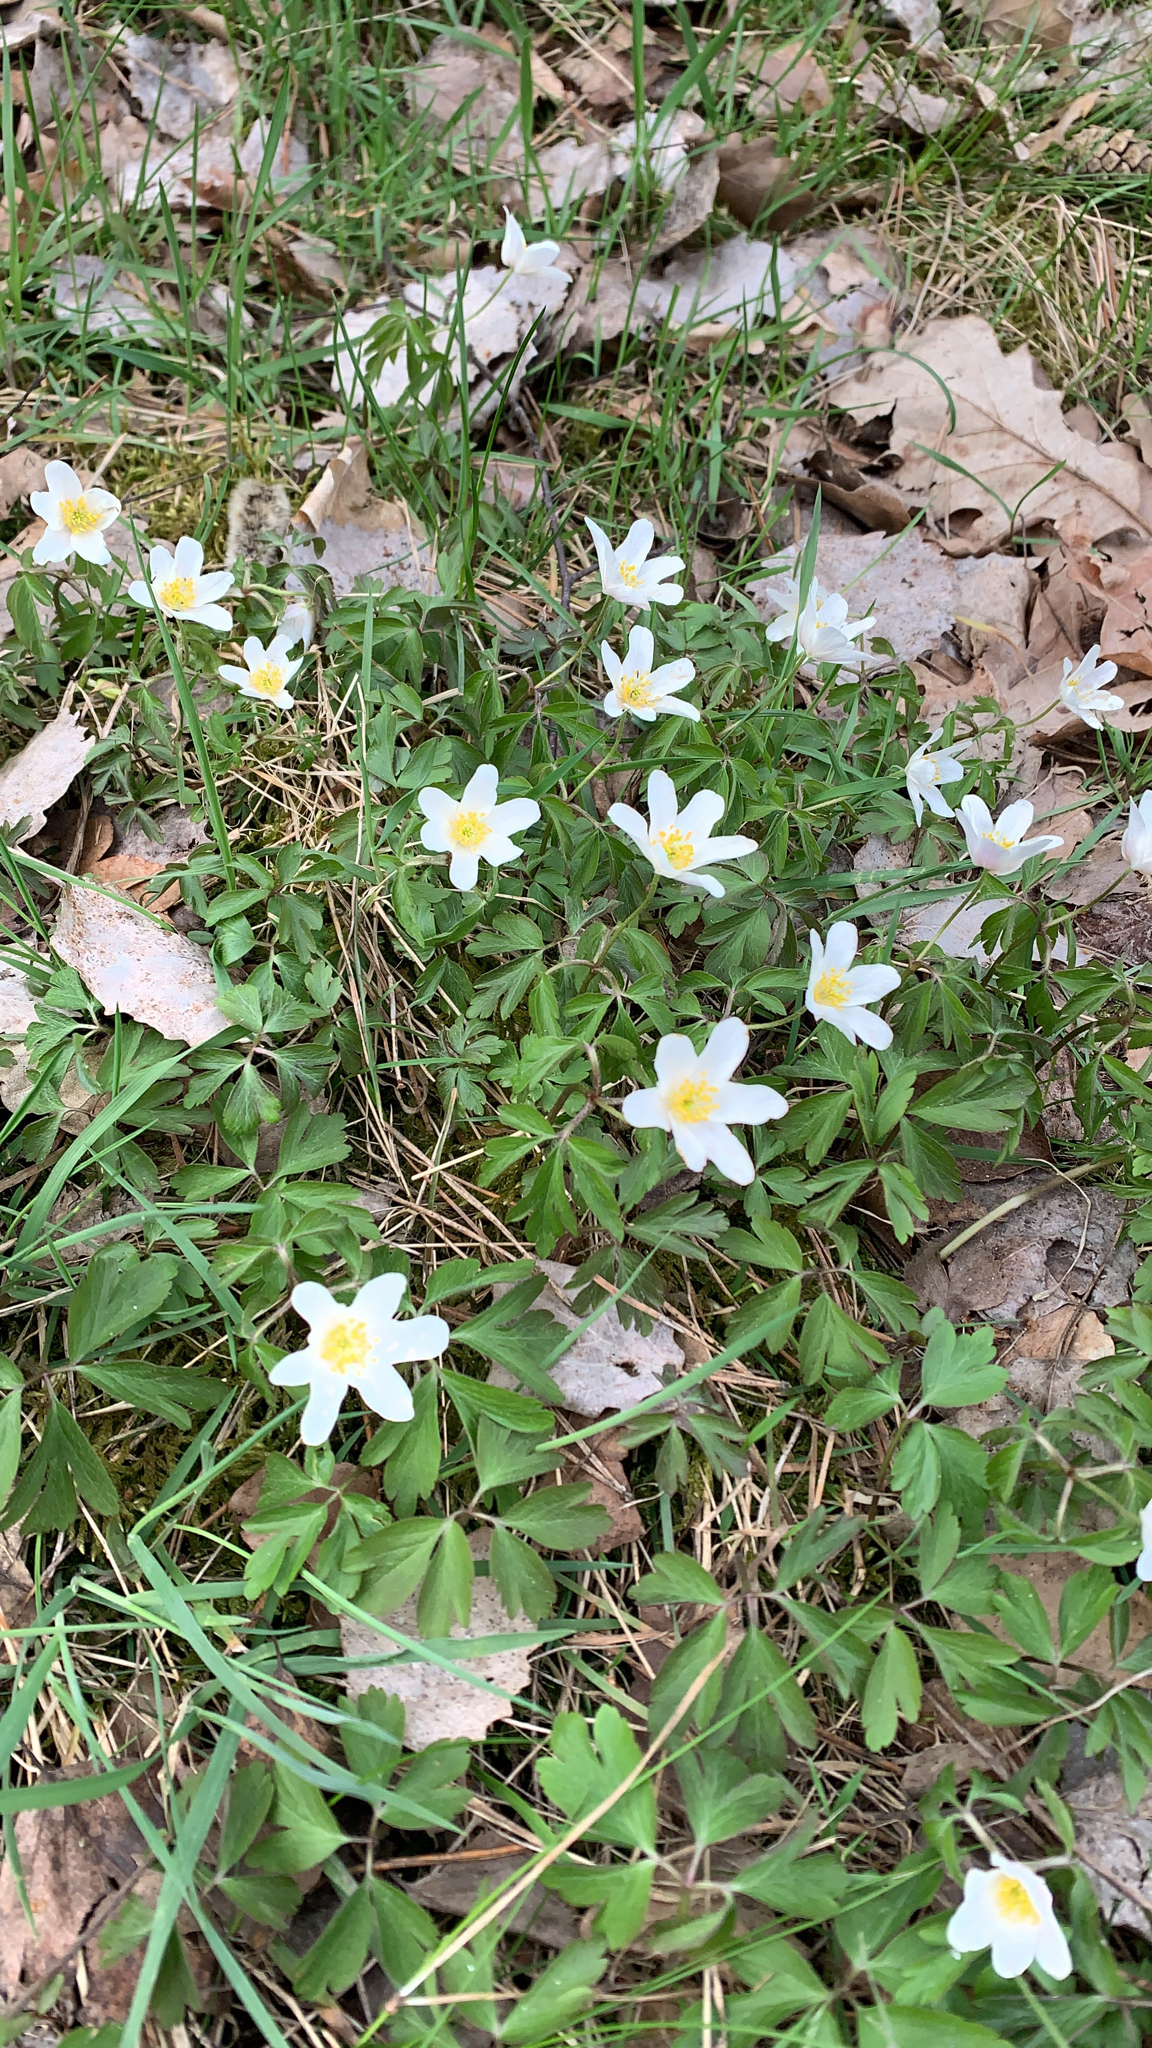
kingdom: Plantae
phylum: Tracheophyta
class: Magnoliopsida
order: Ranunculales
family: Ranunculaceae
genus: Anemone
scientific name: Anemone nemorosa
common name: Wood anemone
